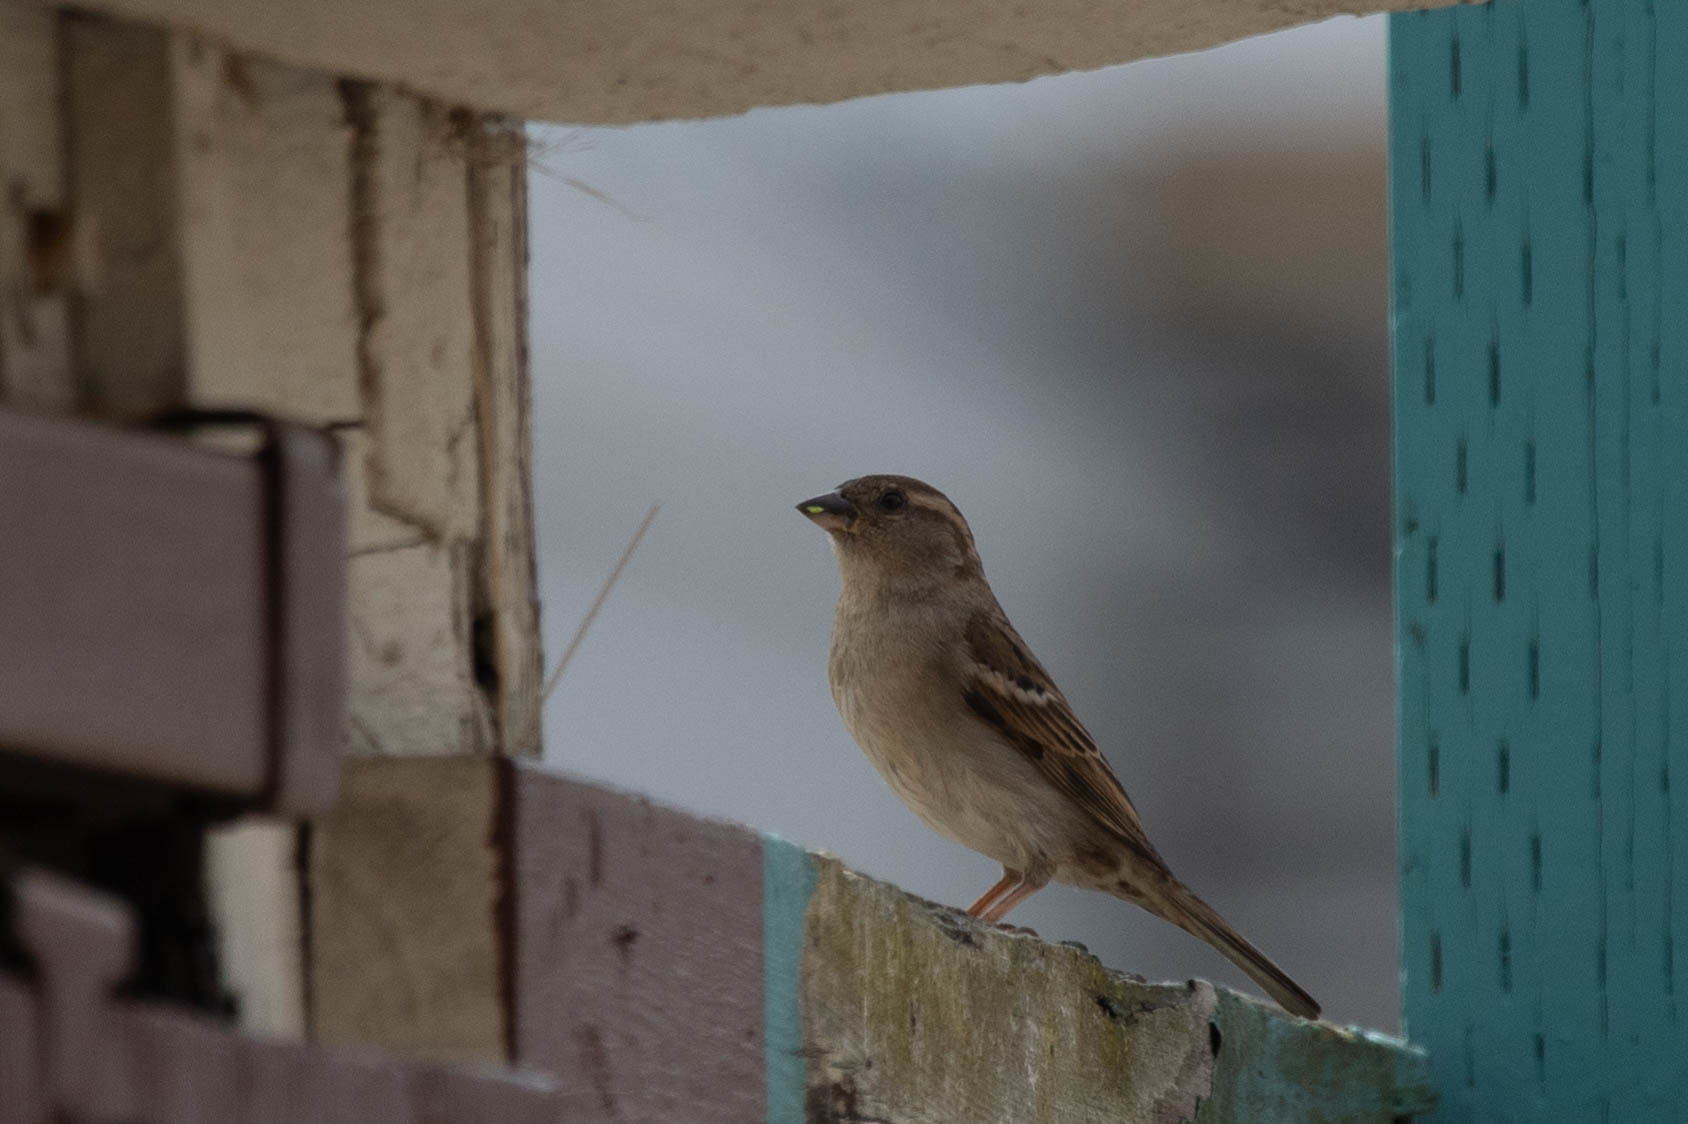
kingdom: Animalia
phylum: Chordata
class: Aves
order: Passeriformes
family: Passeridae
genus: Passer
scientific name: Passer domesticus
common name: House sparrow
